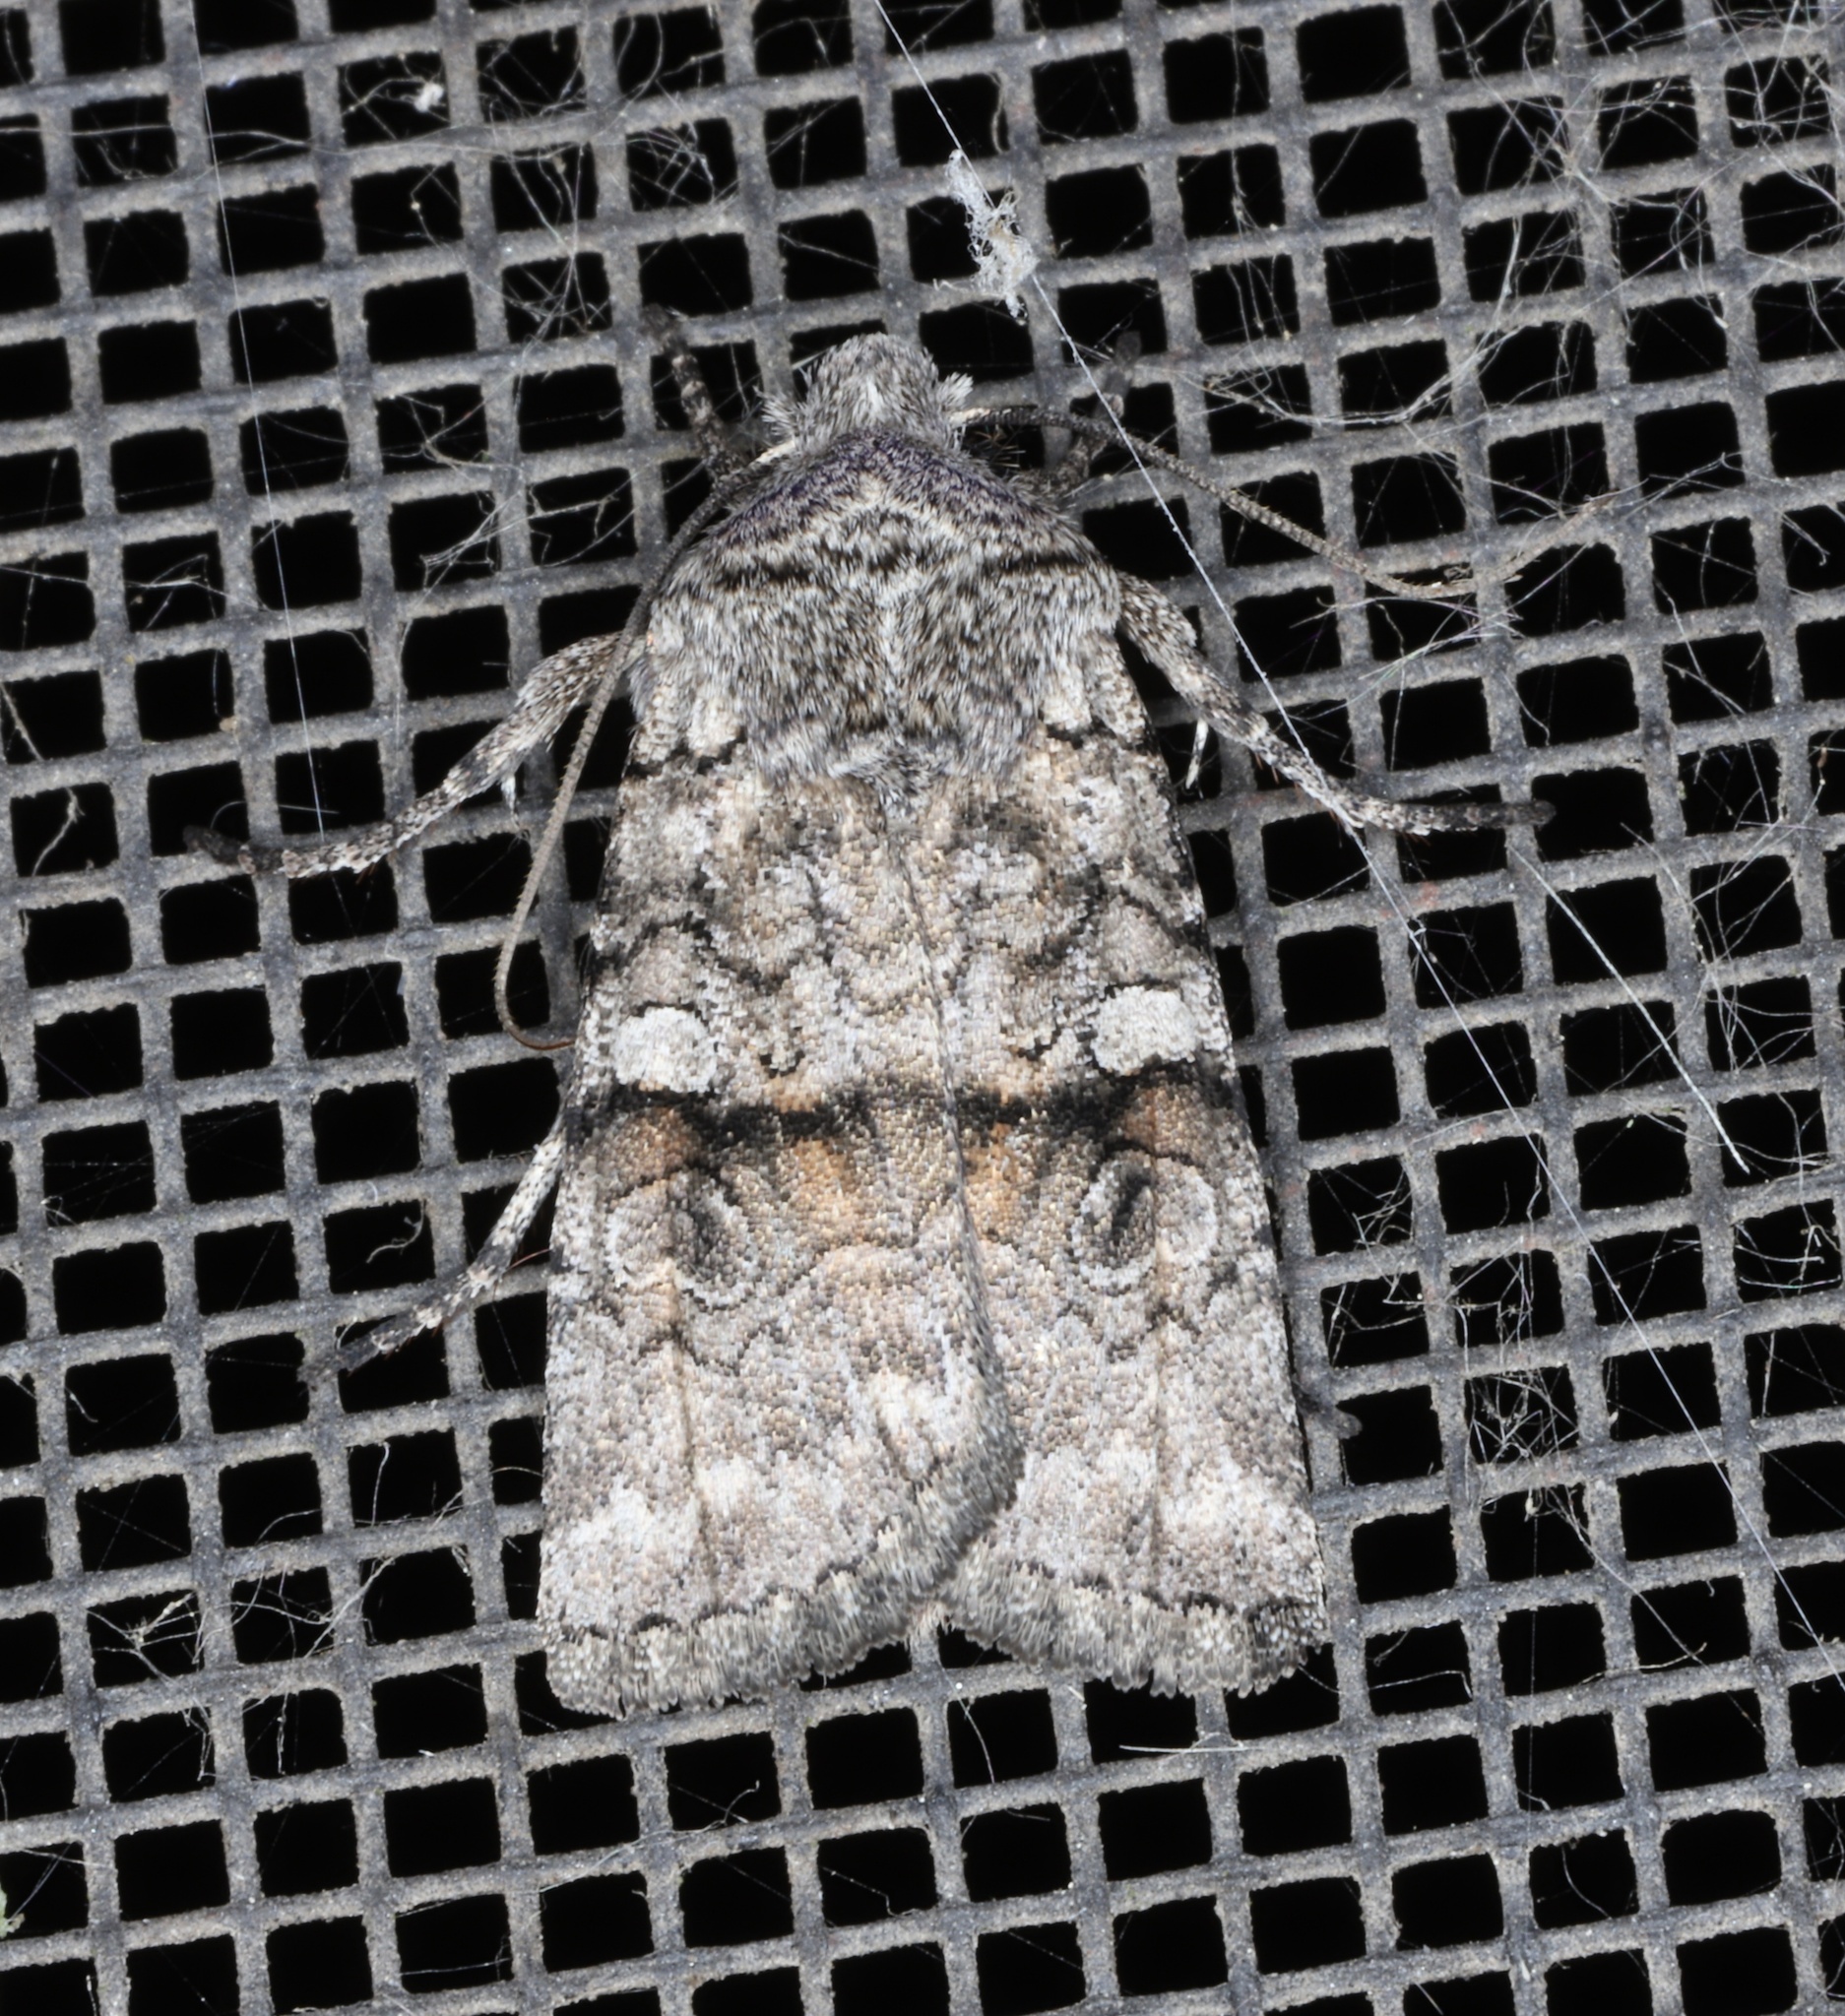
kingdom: Animalia
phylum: Arthropoda
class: Insecta
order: Lepidoptera
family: Noctuidae
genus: Litholomia
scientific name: Litholomia napaea
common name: False pinion moth
